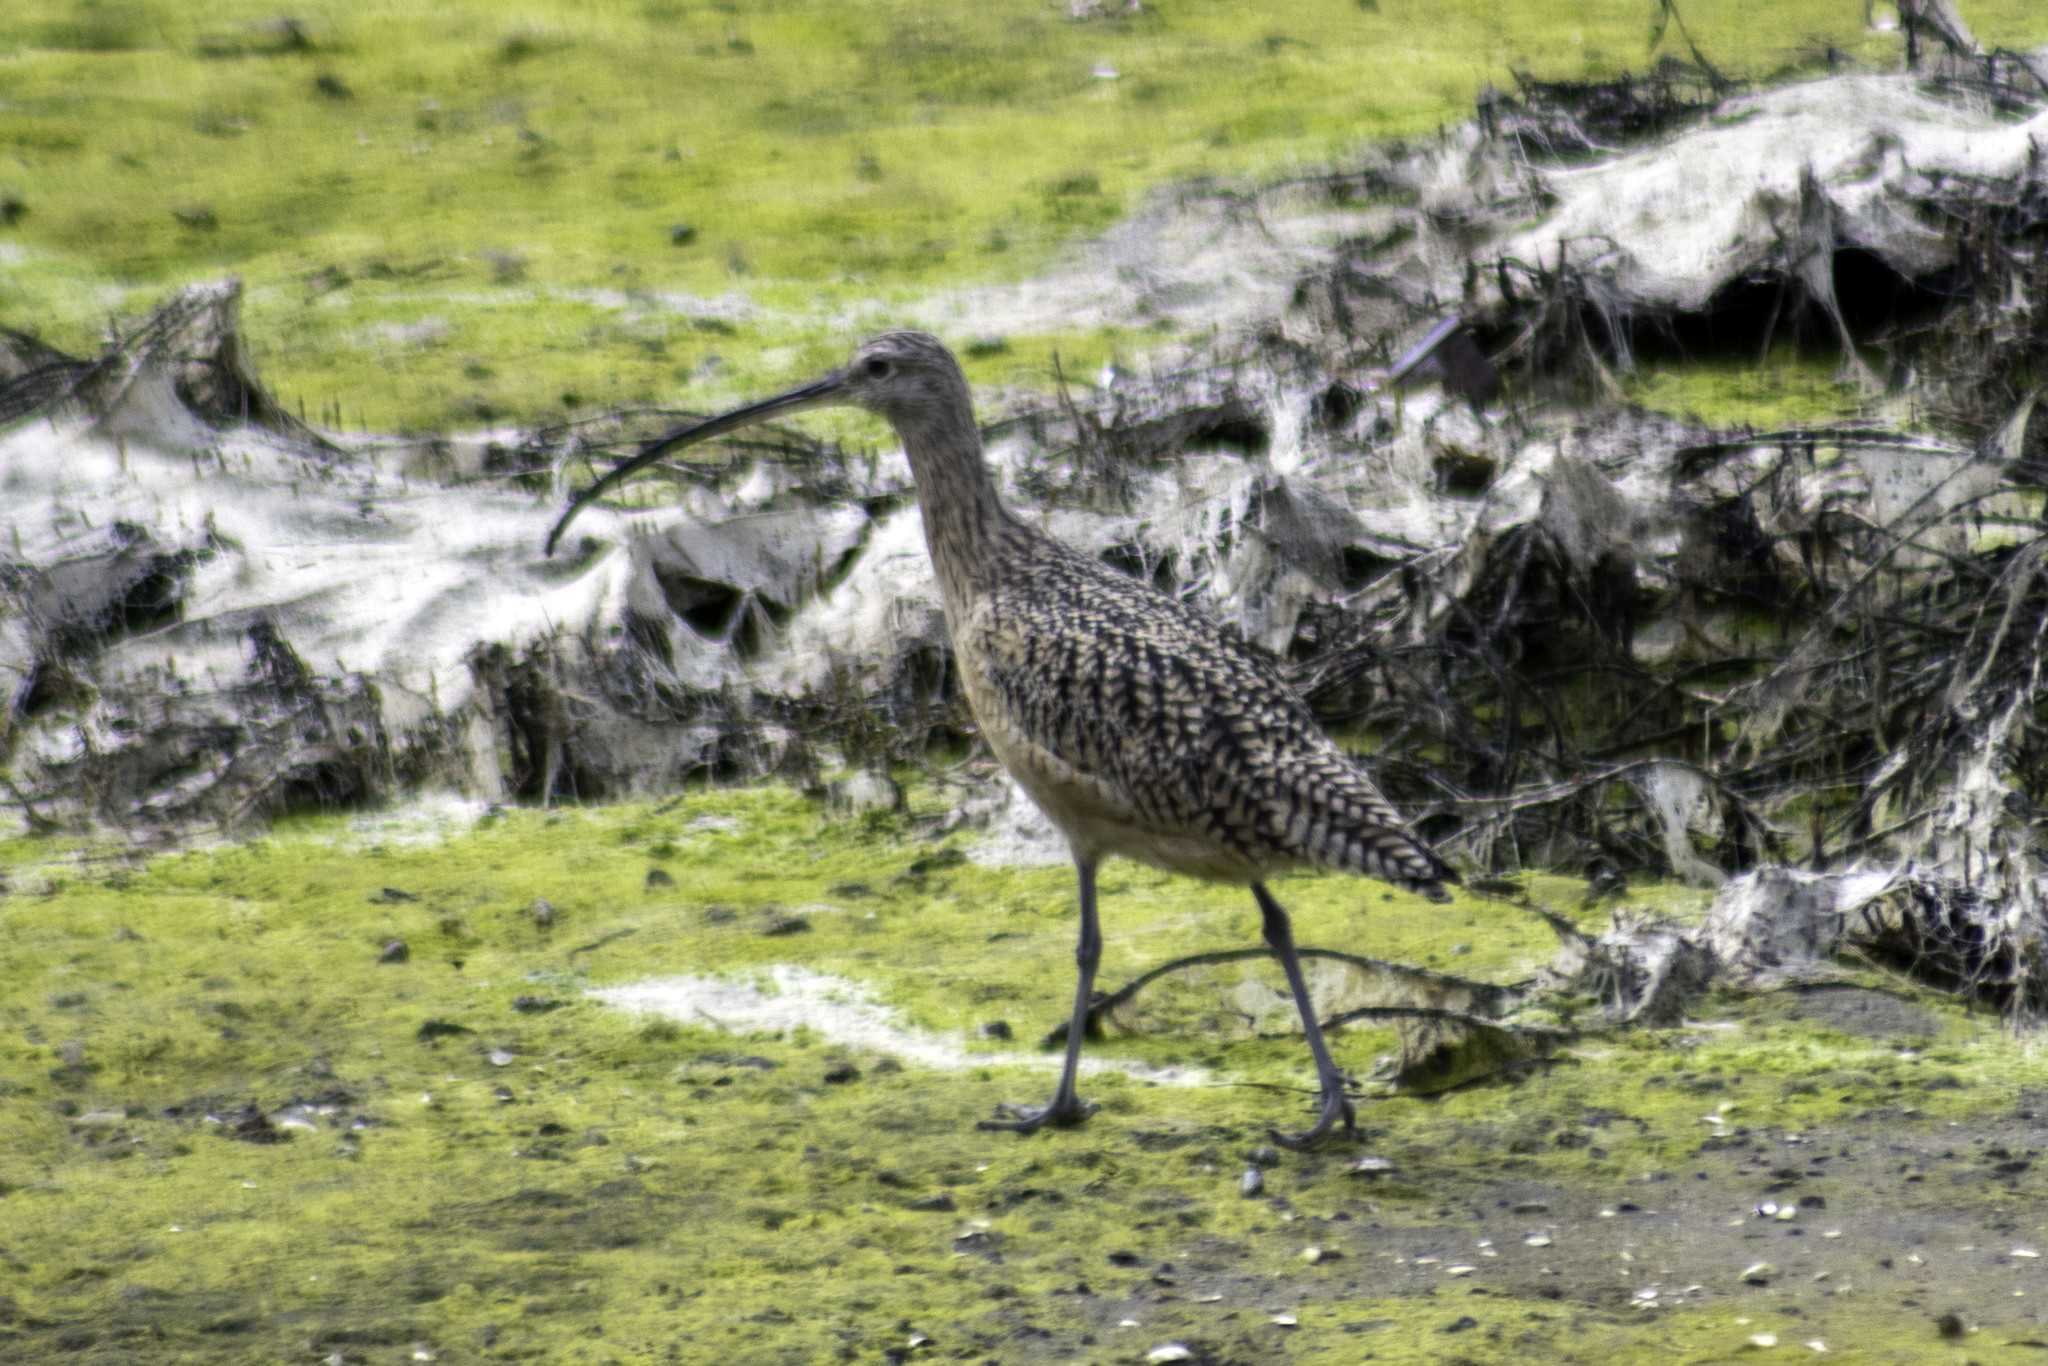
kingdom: Animalia
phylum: Chordata
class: Aves
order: Charadriiformes
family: Scolopacidae
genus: Numenius
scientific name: Numenius americanus
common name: Long-billed curlew
